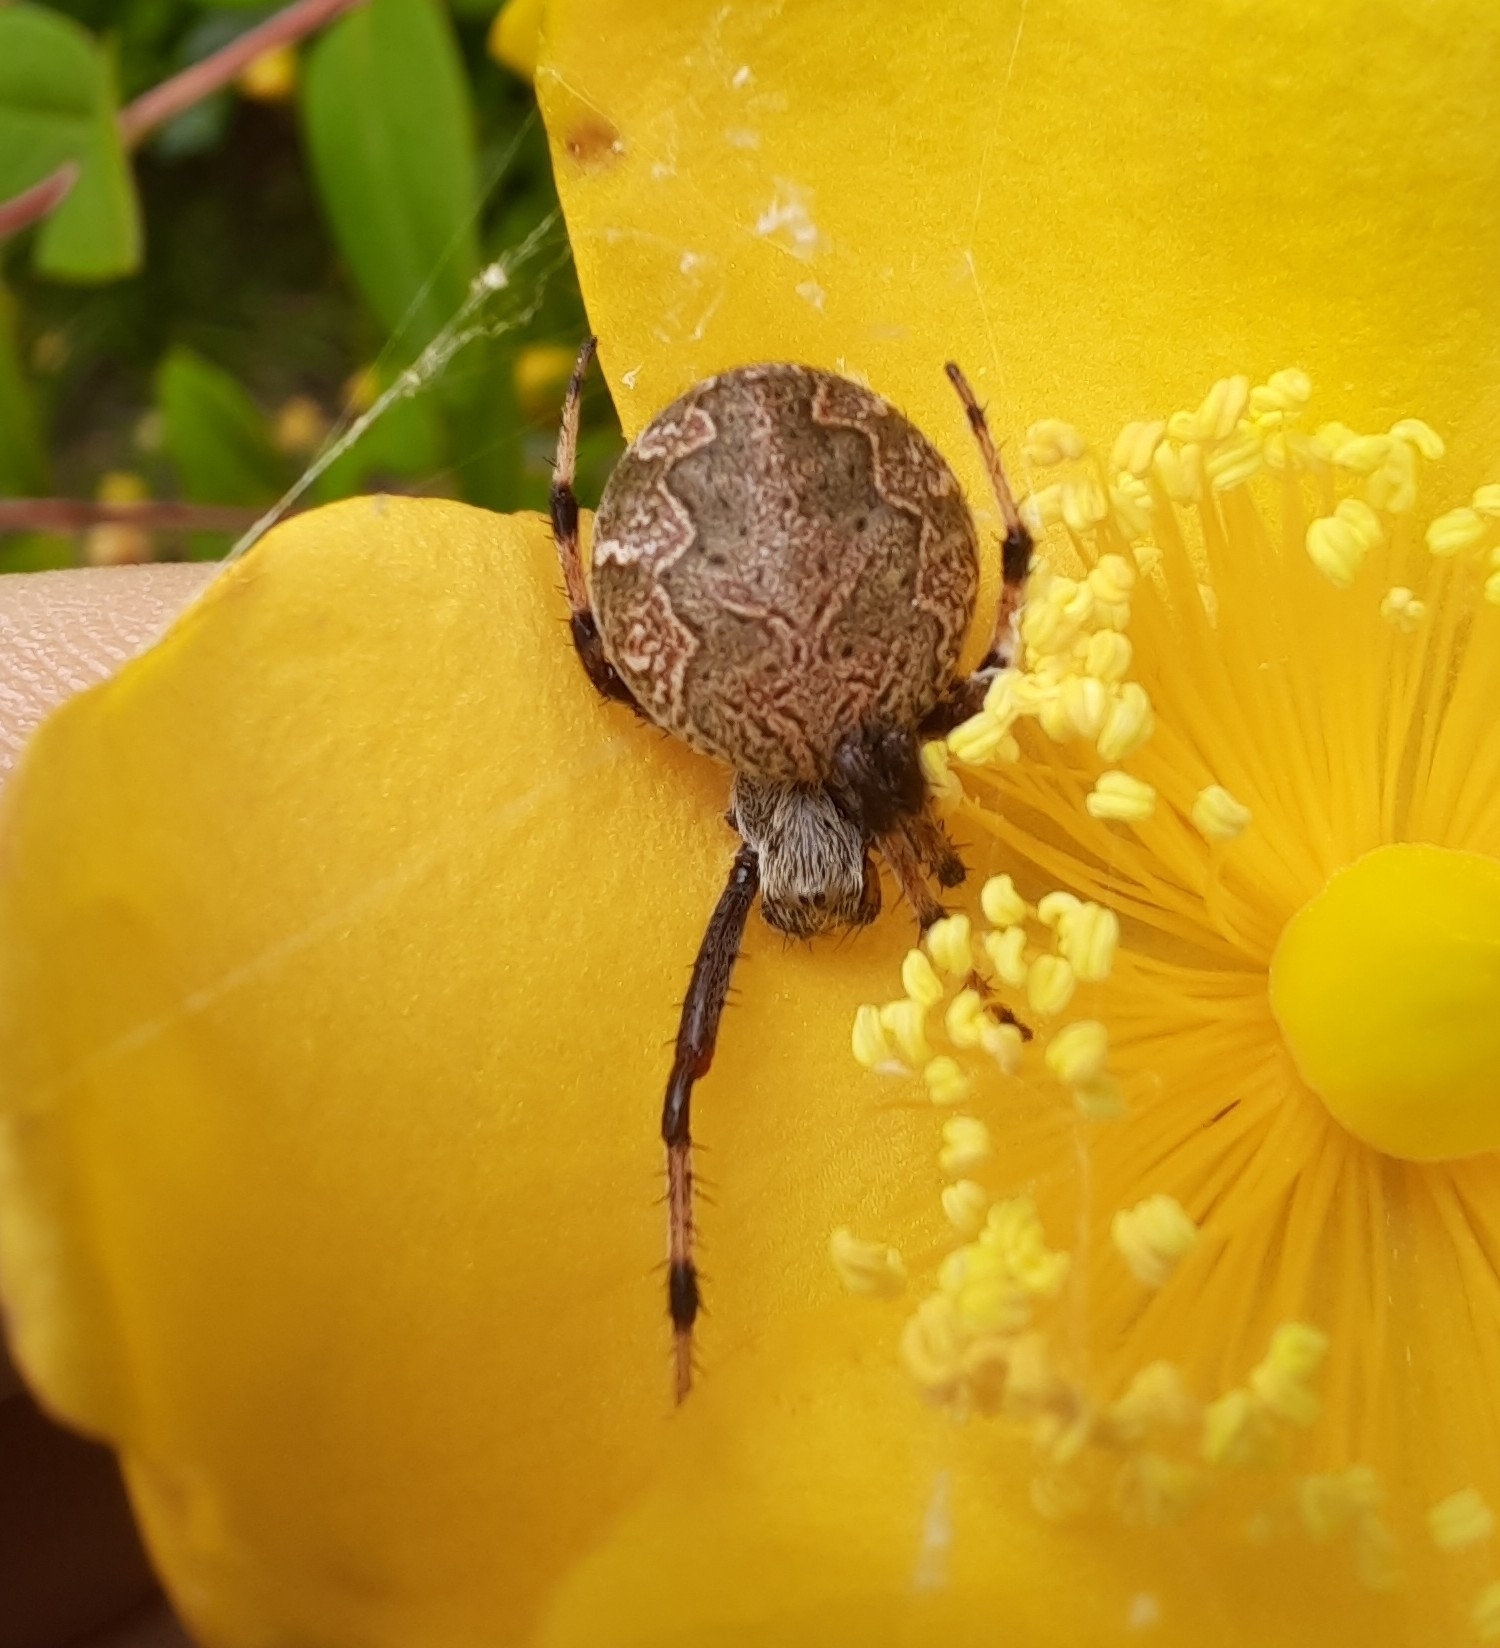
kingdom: Animalia
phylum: Arthropoda
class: Arachnida
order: Araneae
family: Araneidae
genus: Salsa
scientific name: Salsa fuliginata
